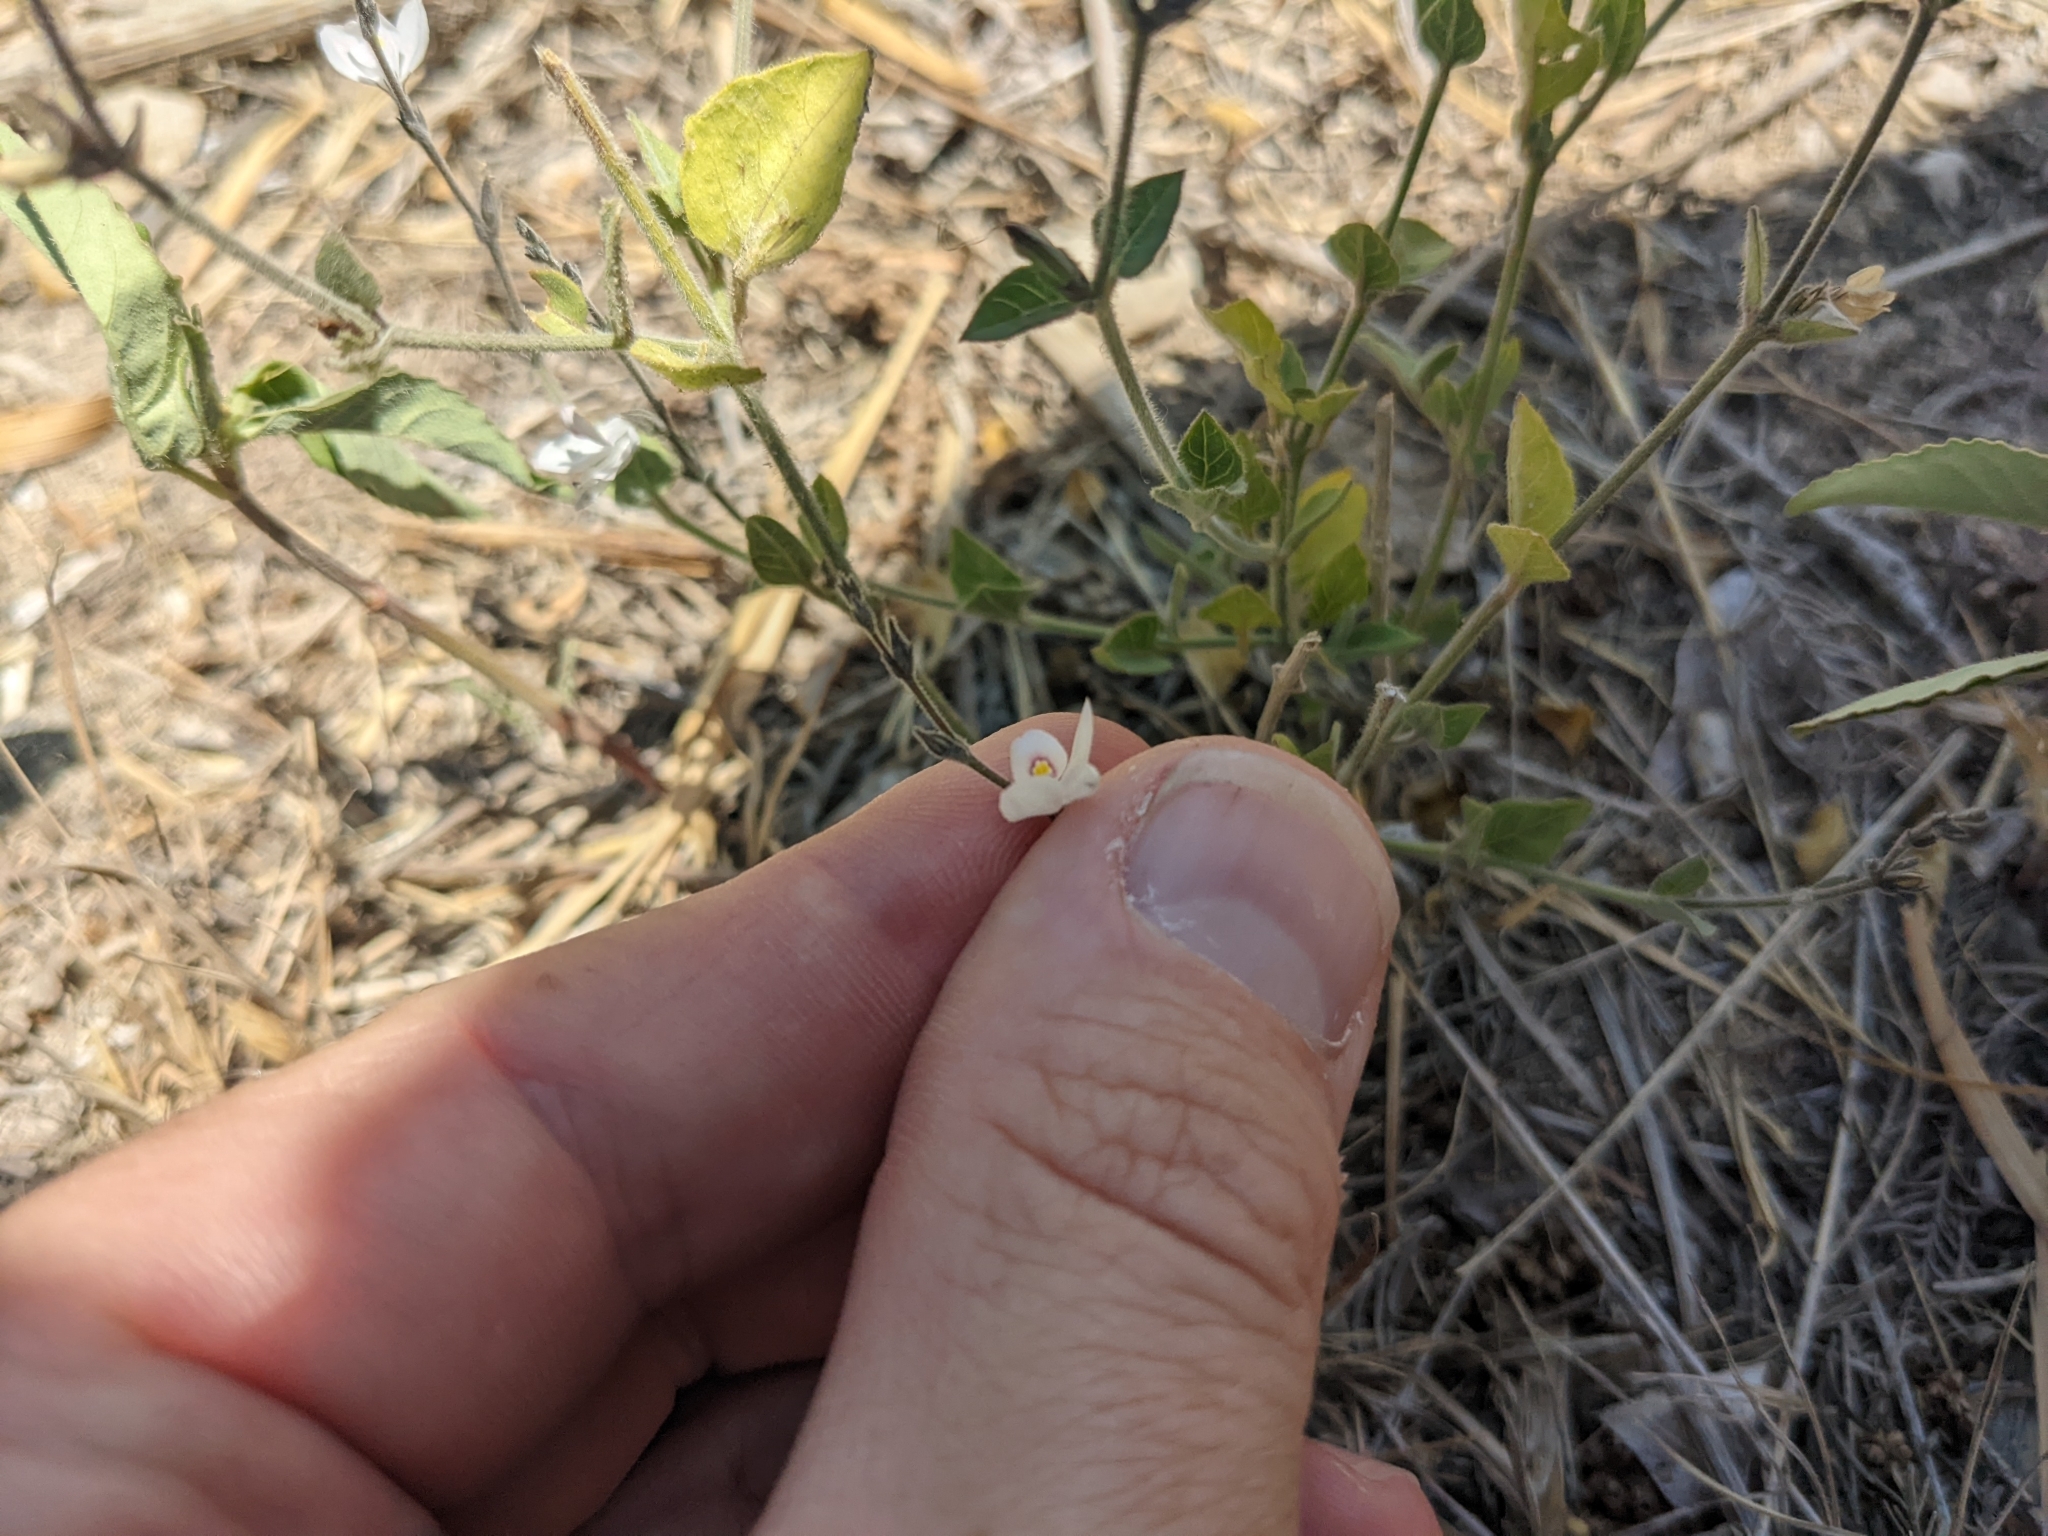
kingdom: Plantae
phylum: Tracheophyta
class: Magnoliopsida
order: Lamiales
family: Acanthaceae
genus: Carlowrightia
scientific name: Carlowrightia torreyana
